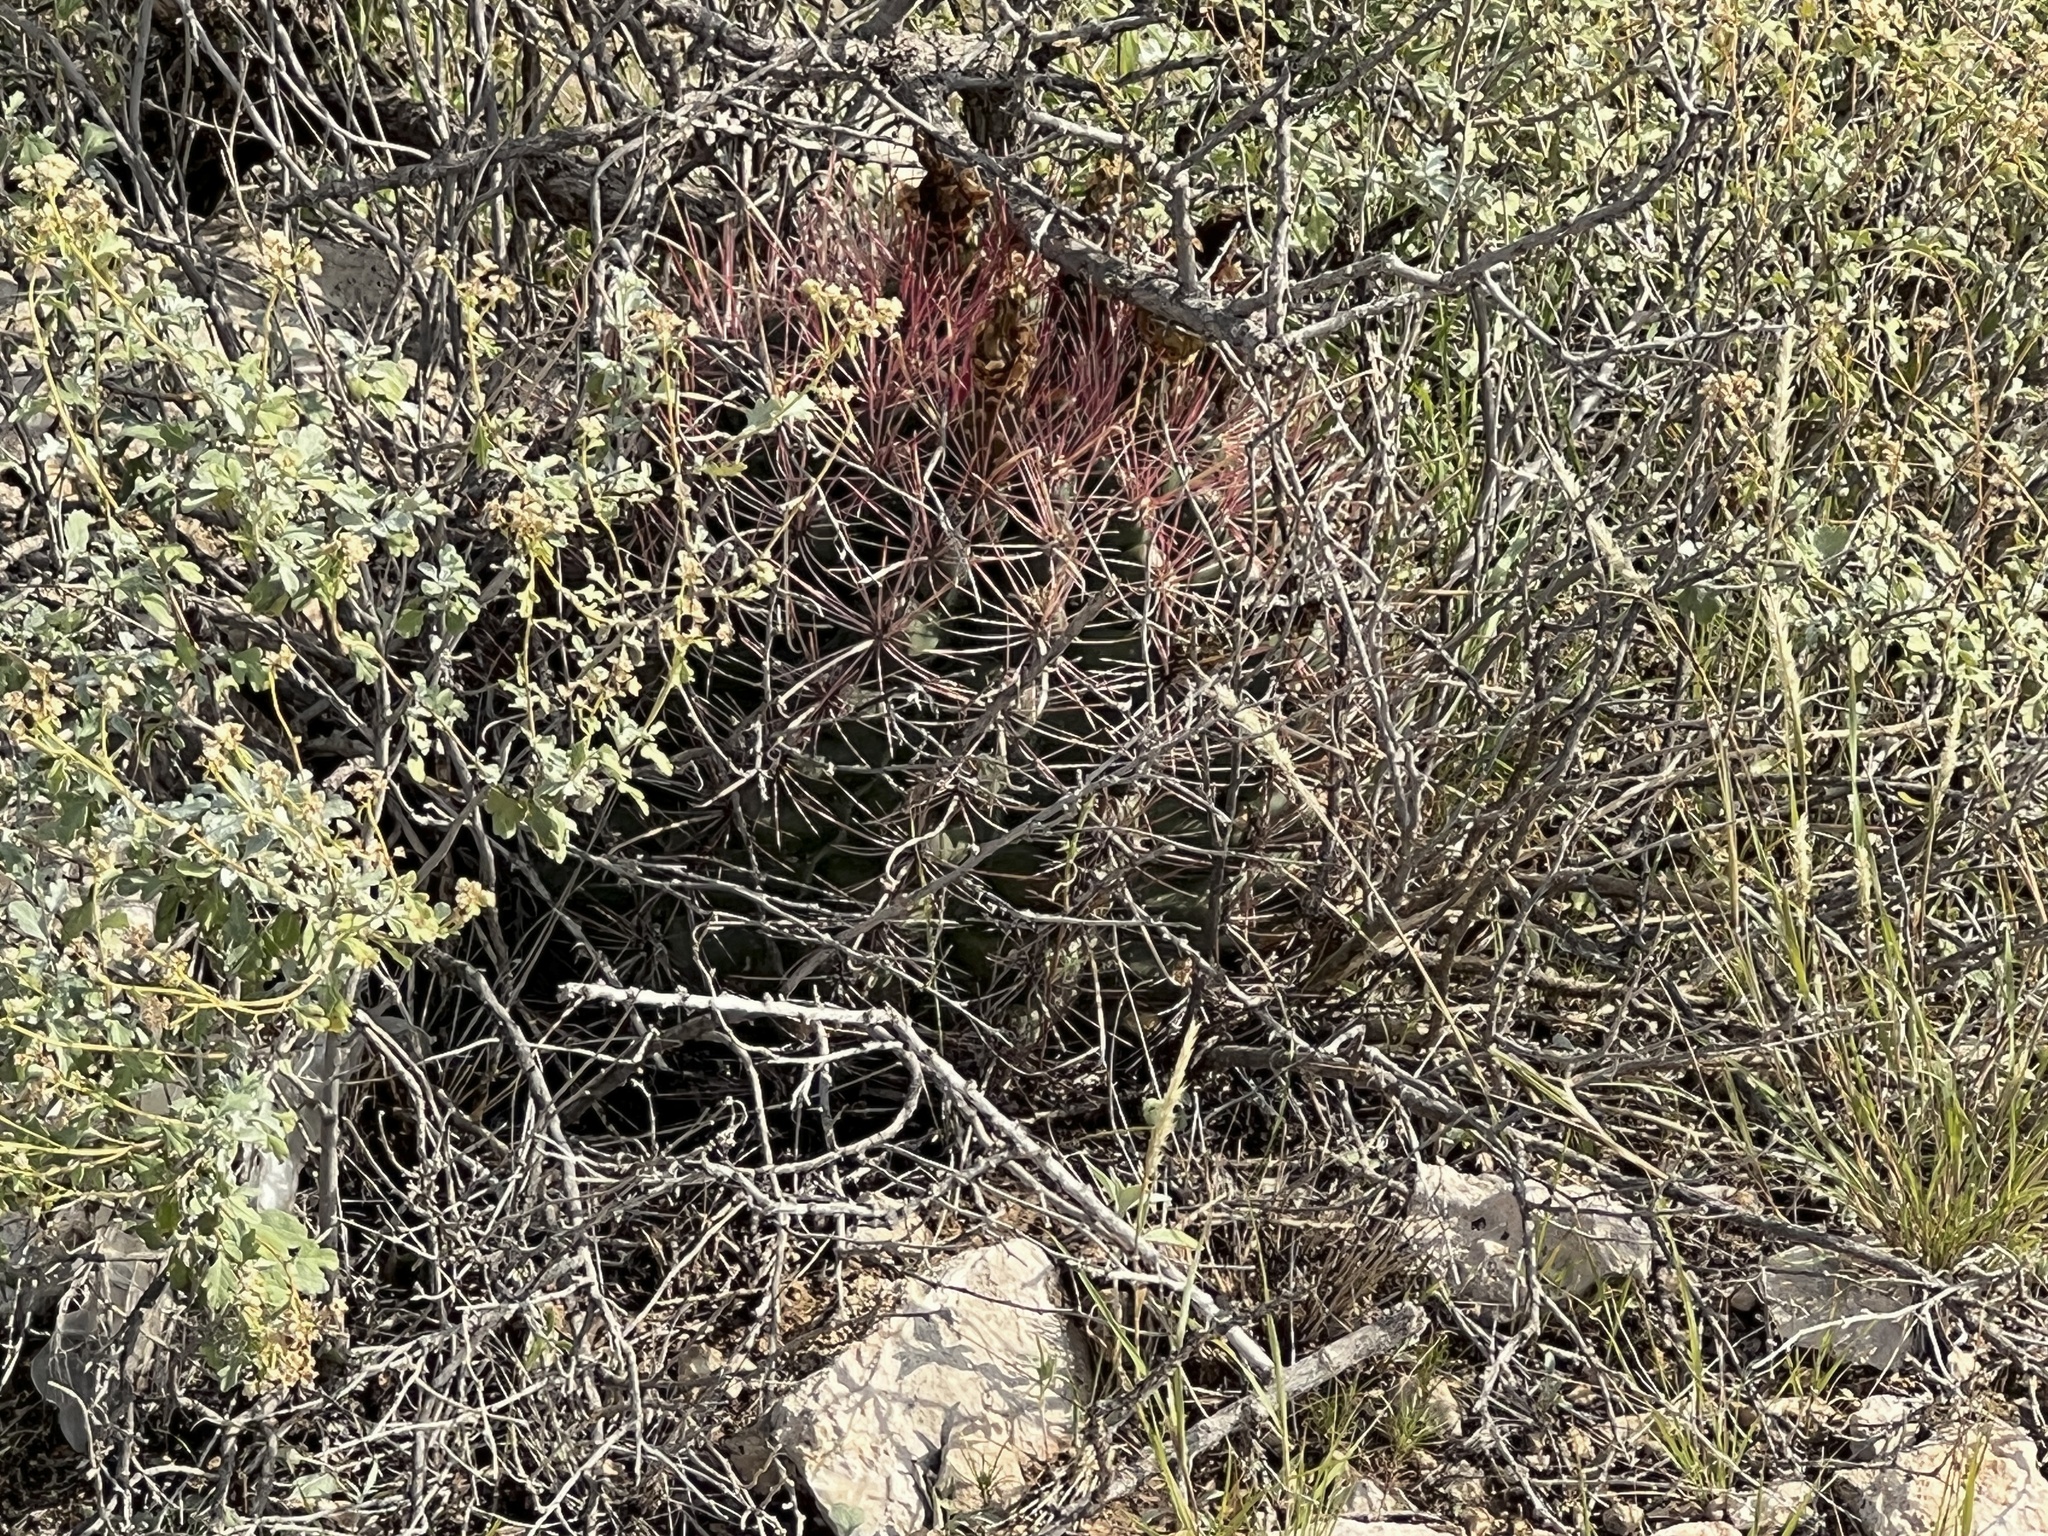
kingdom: Plantae
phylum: Tracheophyta
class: Magnoliopsida
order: Caryophyllales
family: Cactaceae
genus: Bisnaga
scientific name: Bisnaga hamatacantha
